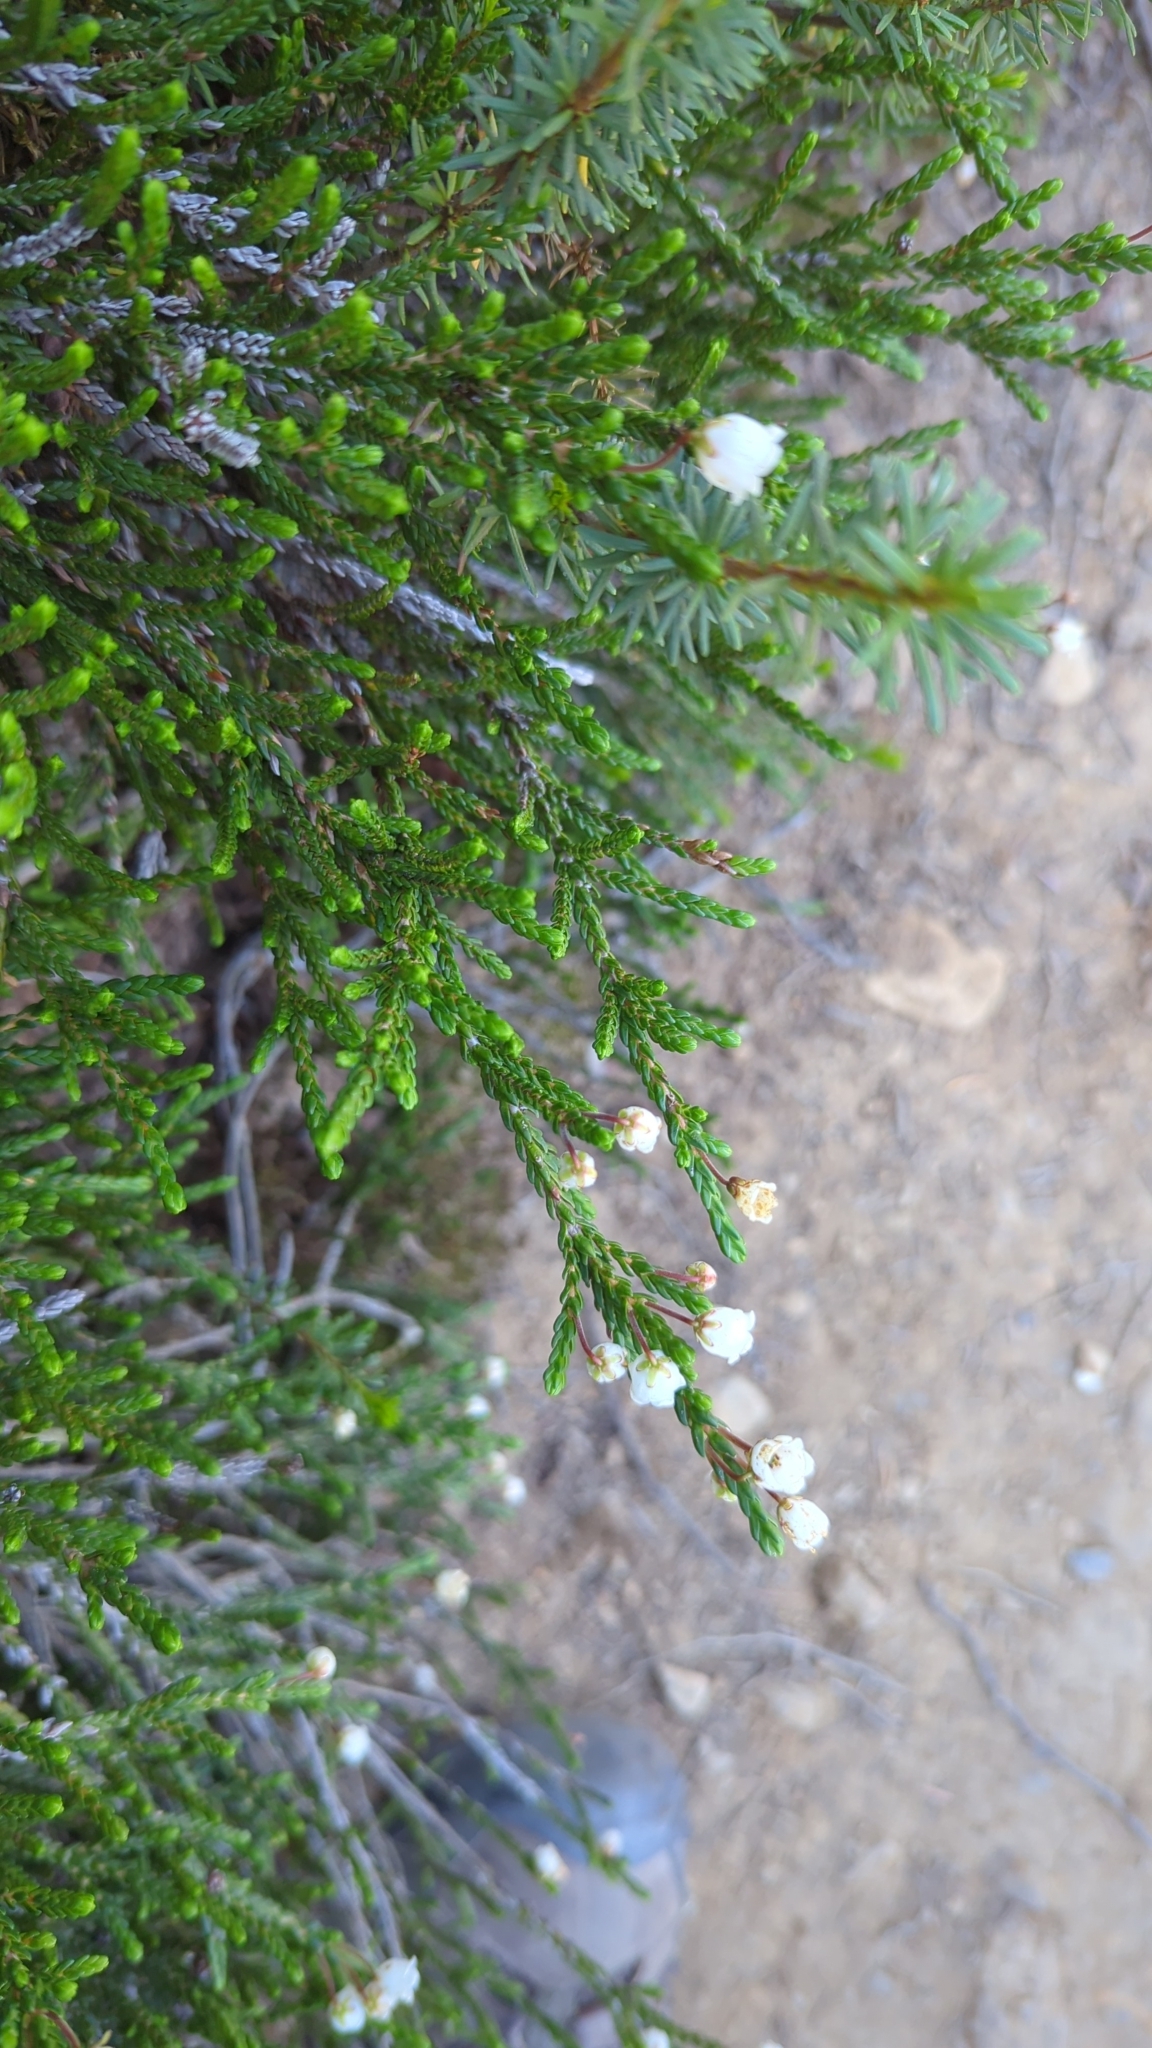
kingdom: Plantae
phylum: Tracheophyta
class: Magnoliopsida
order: Ericales
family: Ericaceae
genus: Cassiope
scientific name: Cassiope mertensiana
